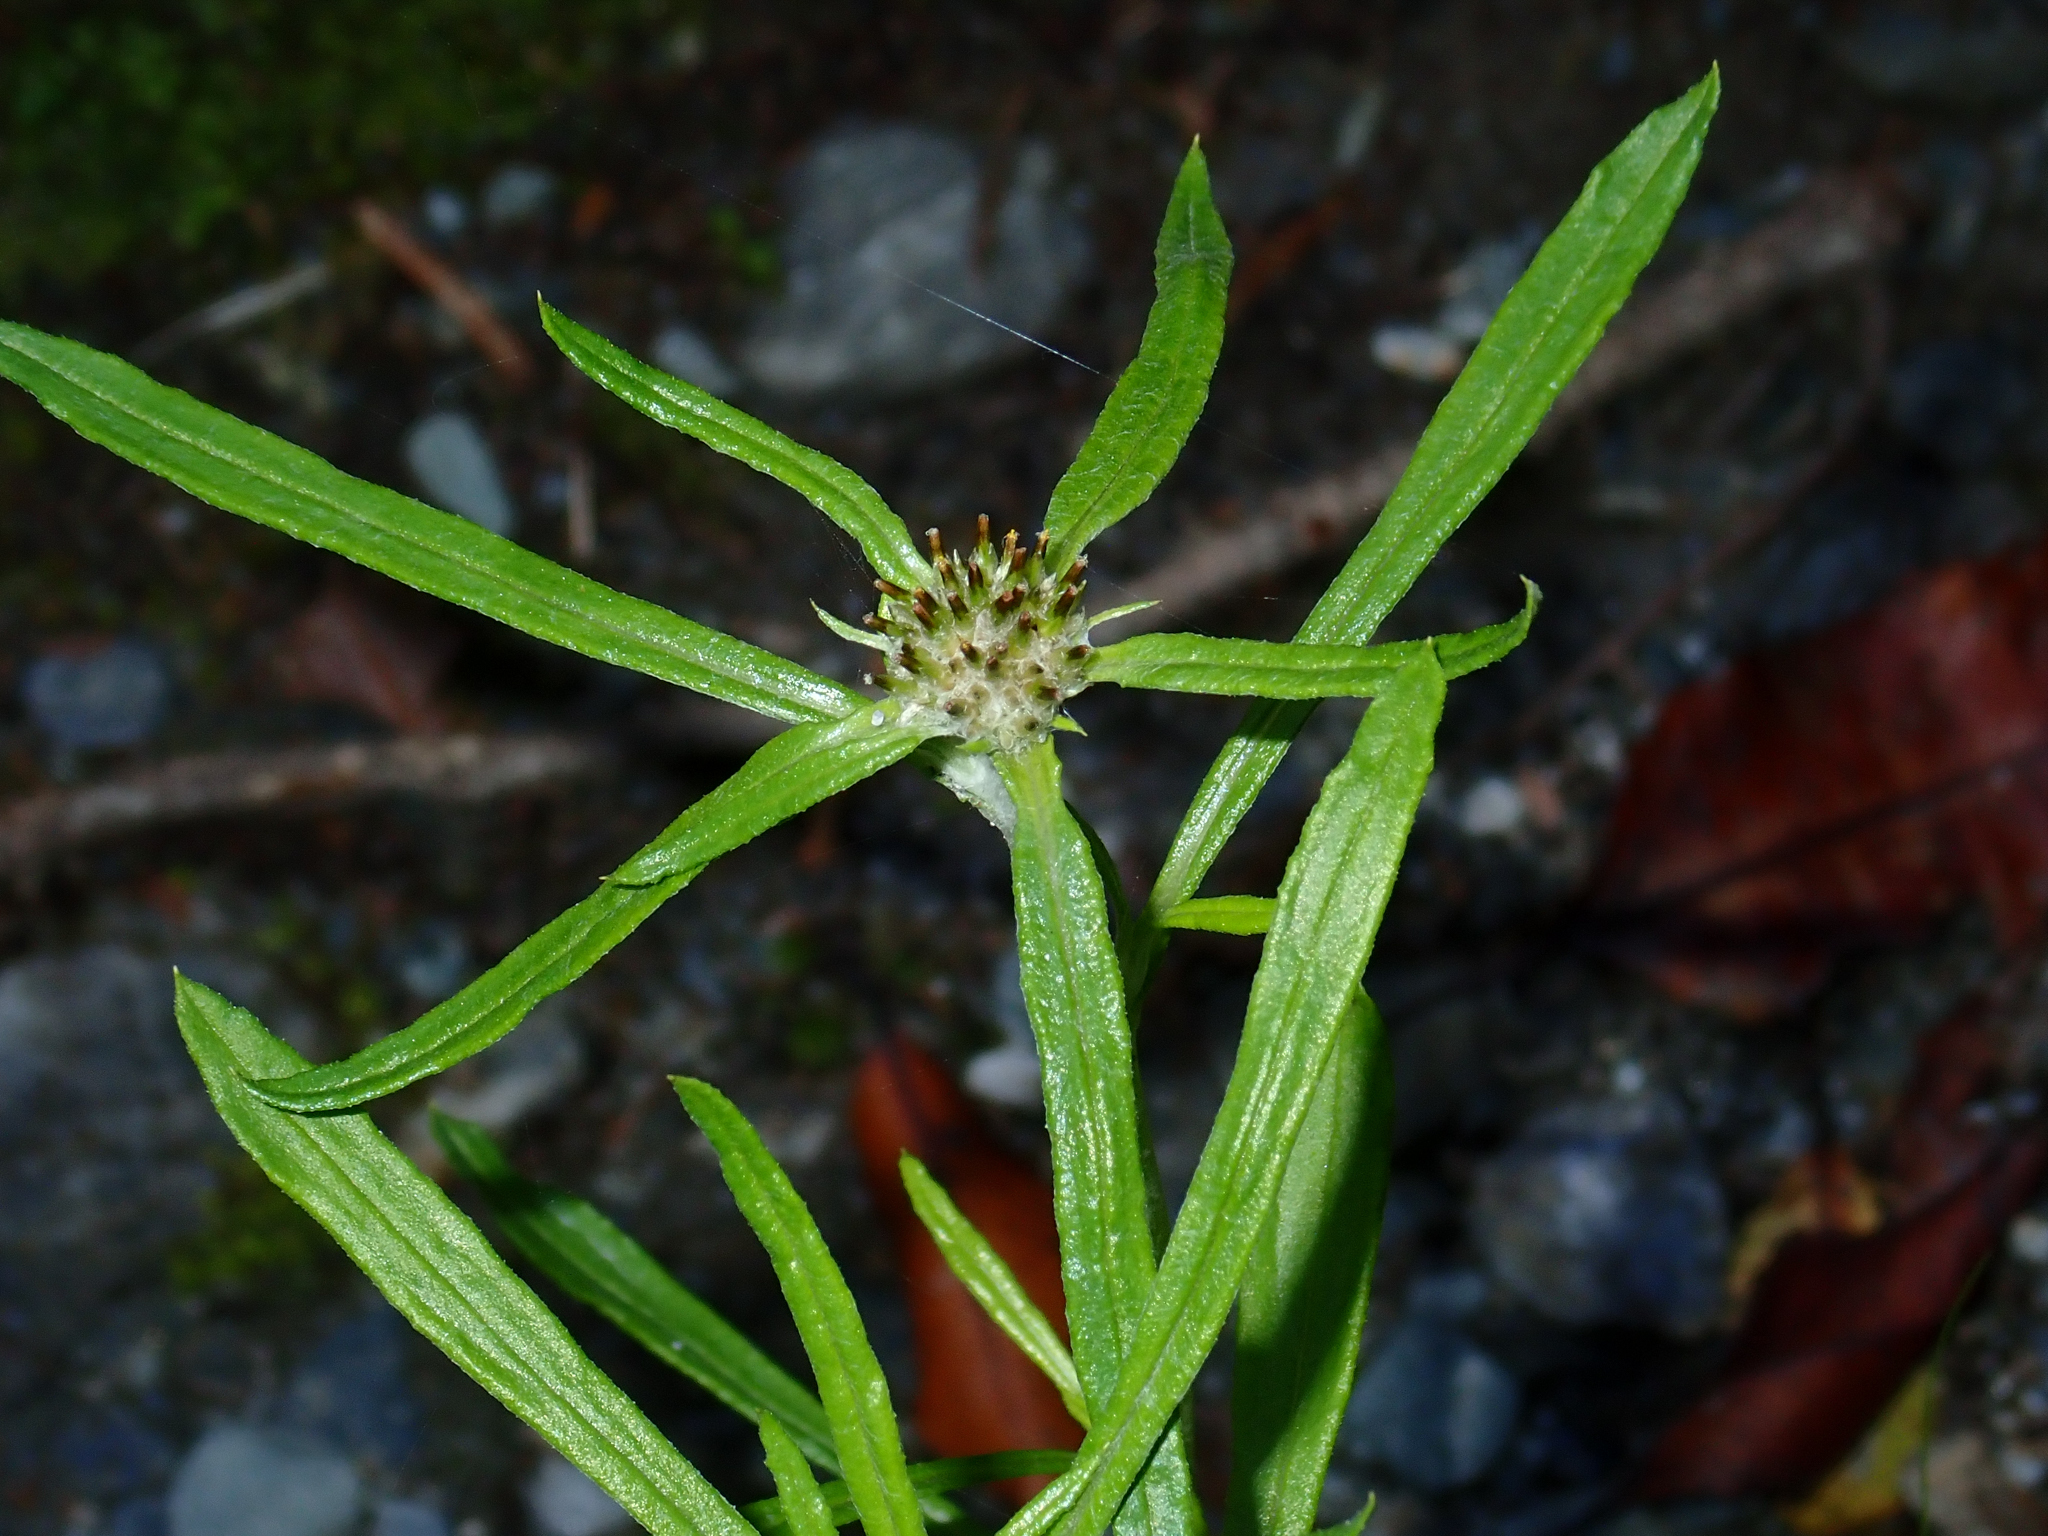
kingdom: Plantae
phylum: Tracheophyta
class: Magnoliopsida
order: Asterales
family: Asteraceae
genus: Euchiton
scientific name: Euchiton sphaericus
